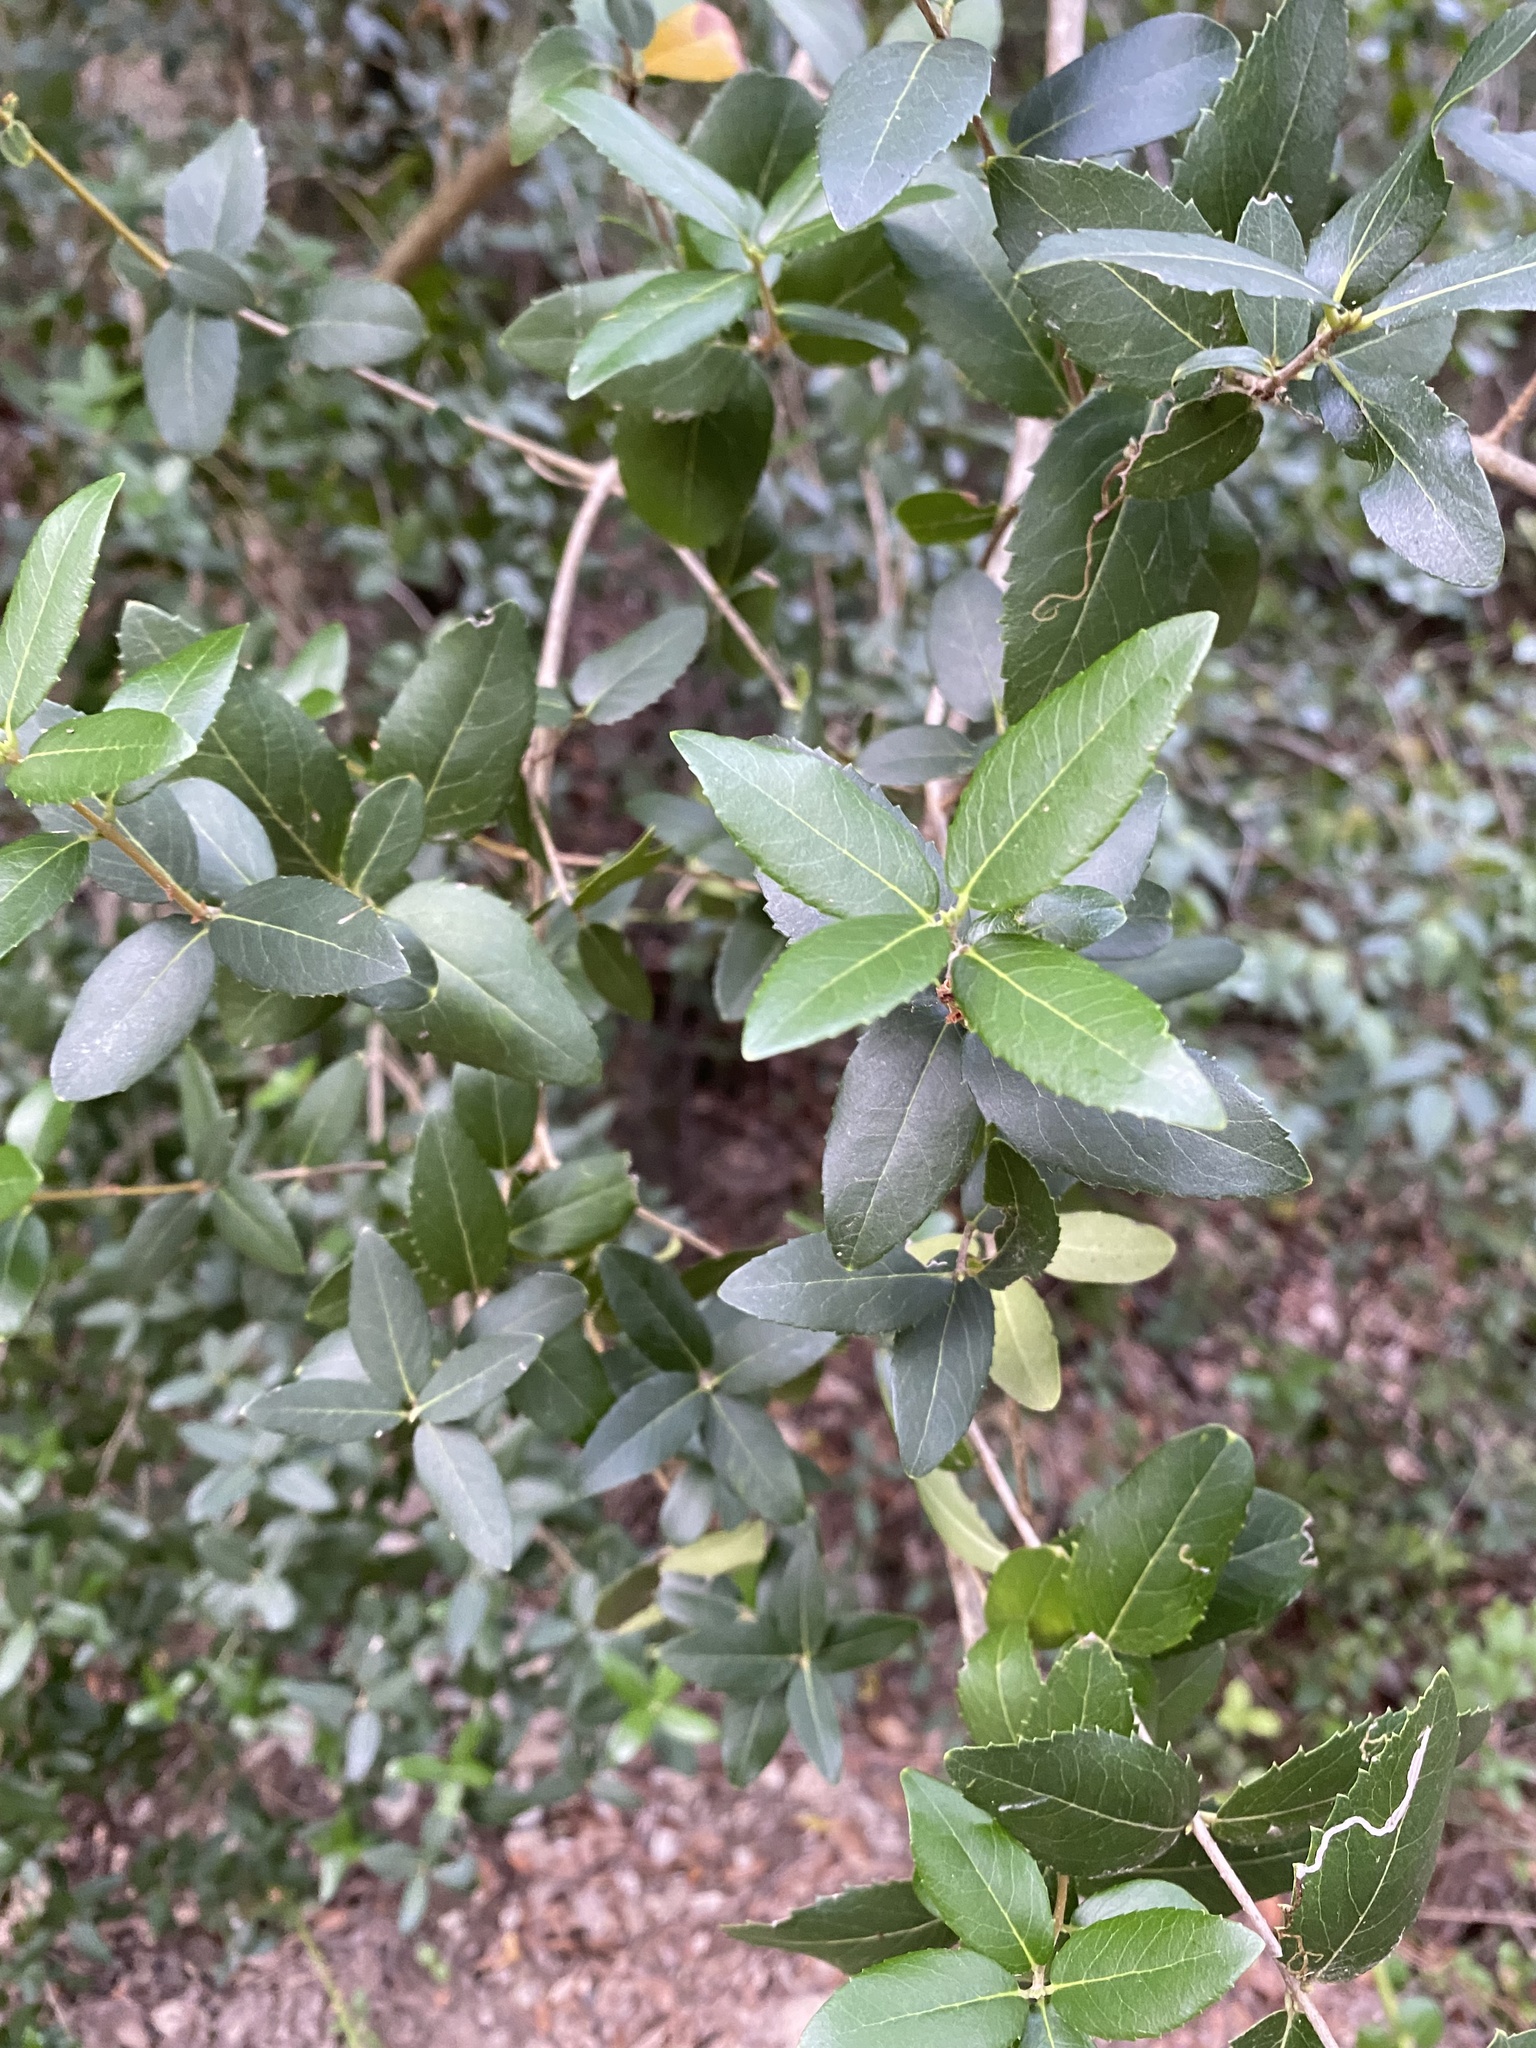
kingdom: Plantae
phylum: Tracheophyta
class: Magnoliopsida
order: Lamiales
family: Oleaceae
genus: Phillyrea
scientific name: Phillyrea latifolia
